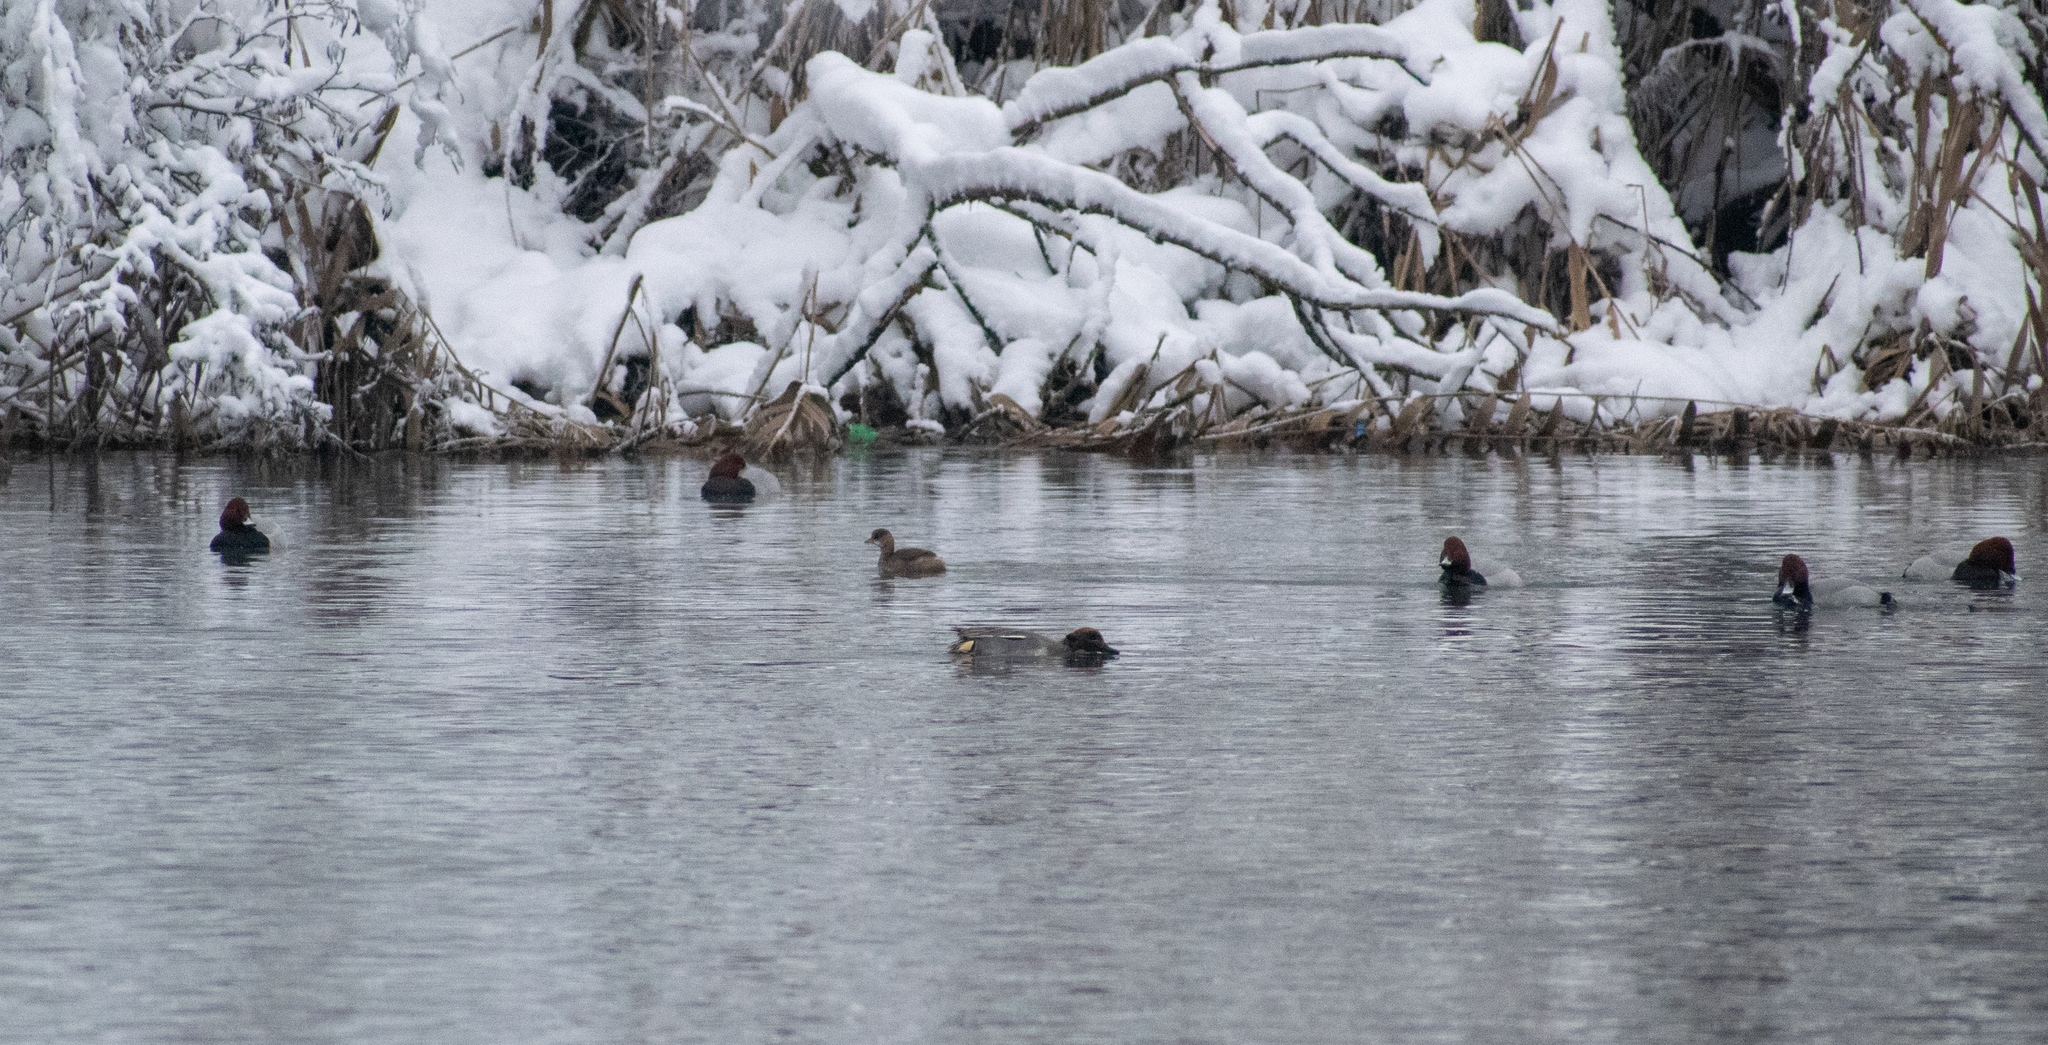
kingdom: Animalia
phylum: Chordata
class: Aves
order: Anseriformes
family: Anatidae
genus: Aythya
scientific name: Aythya ferina
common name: Common pochard
